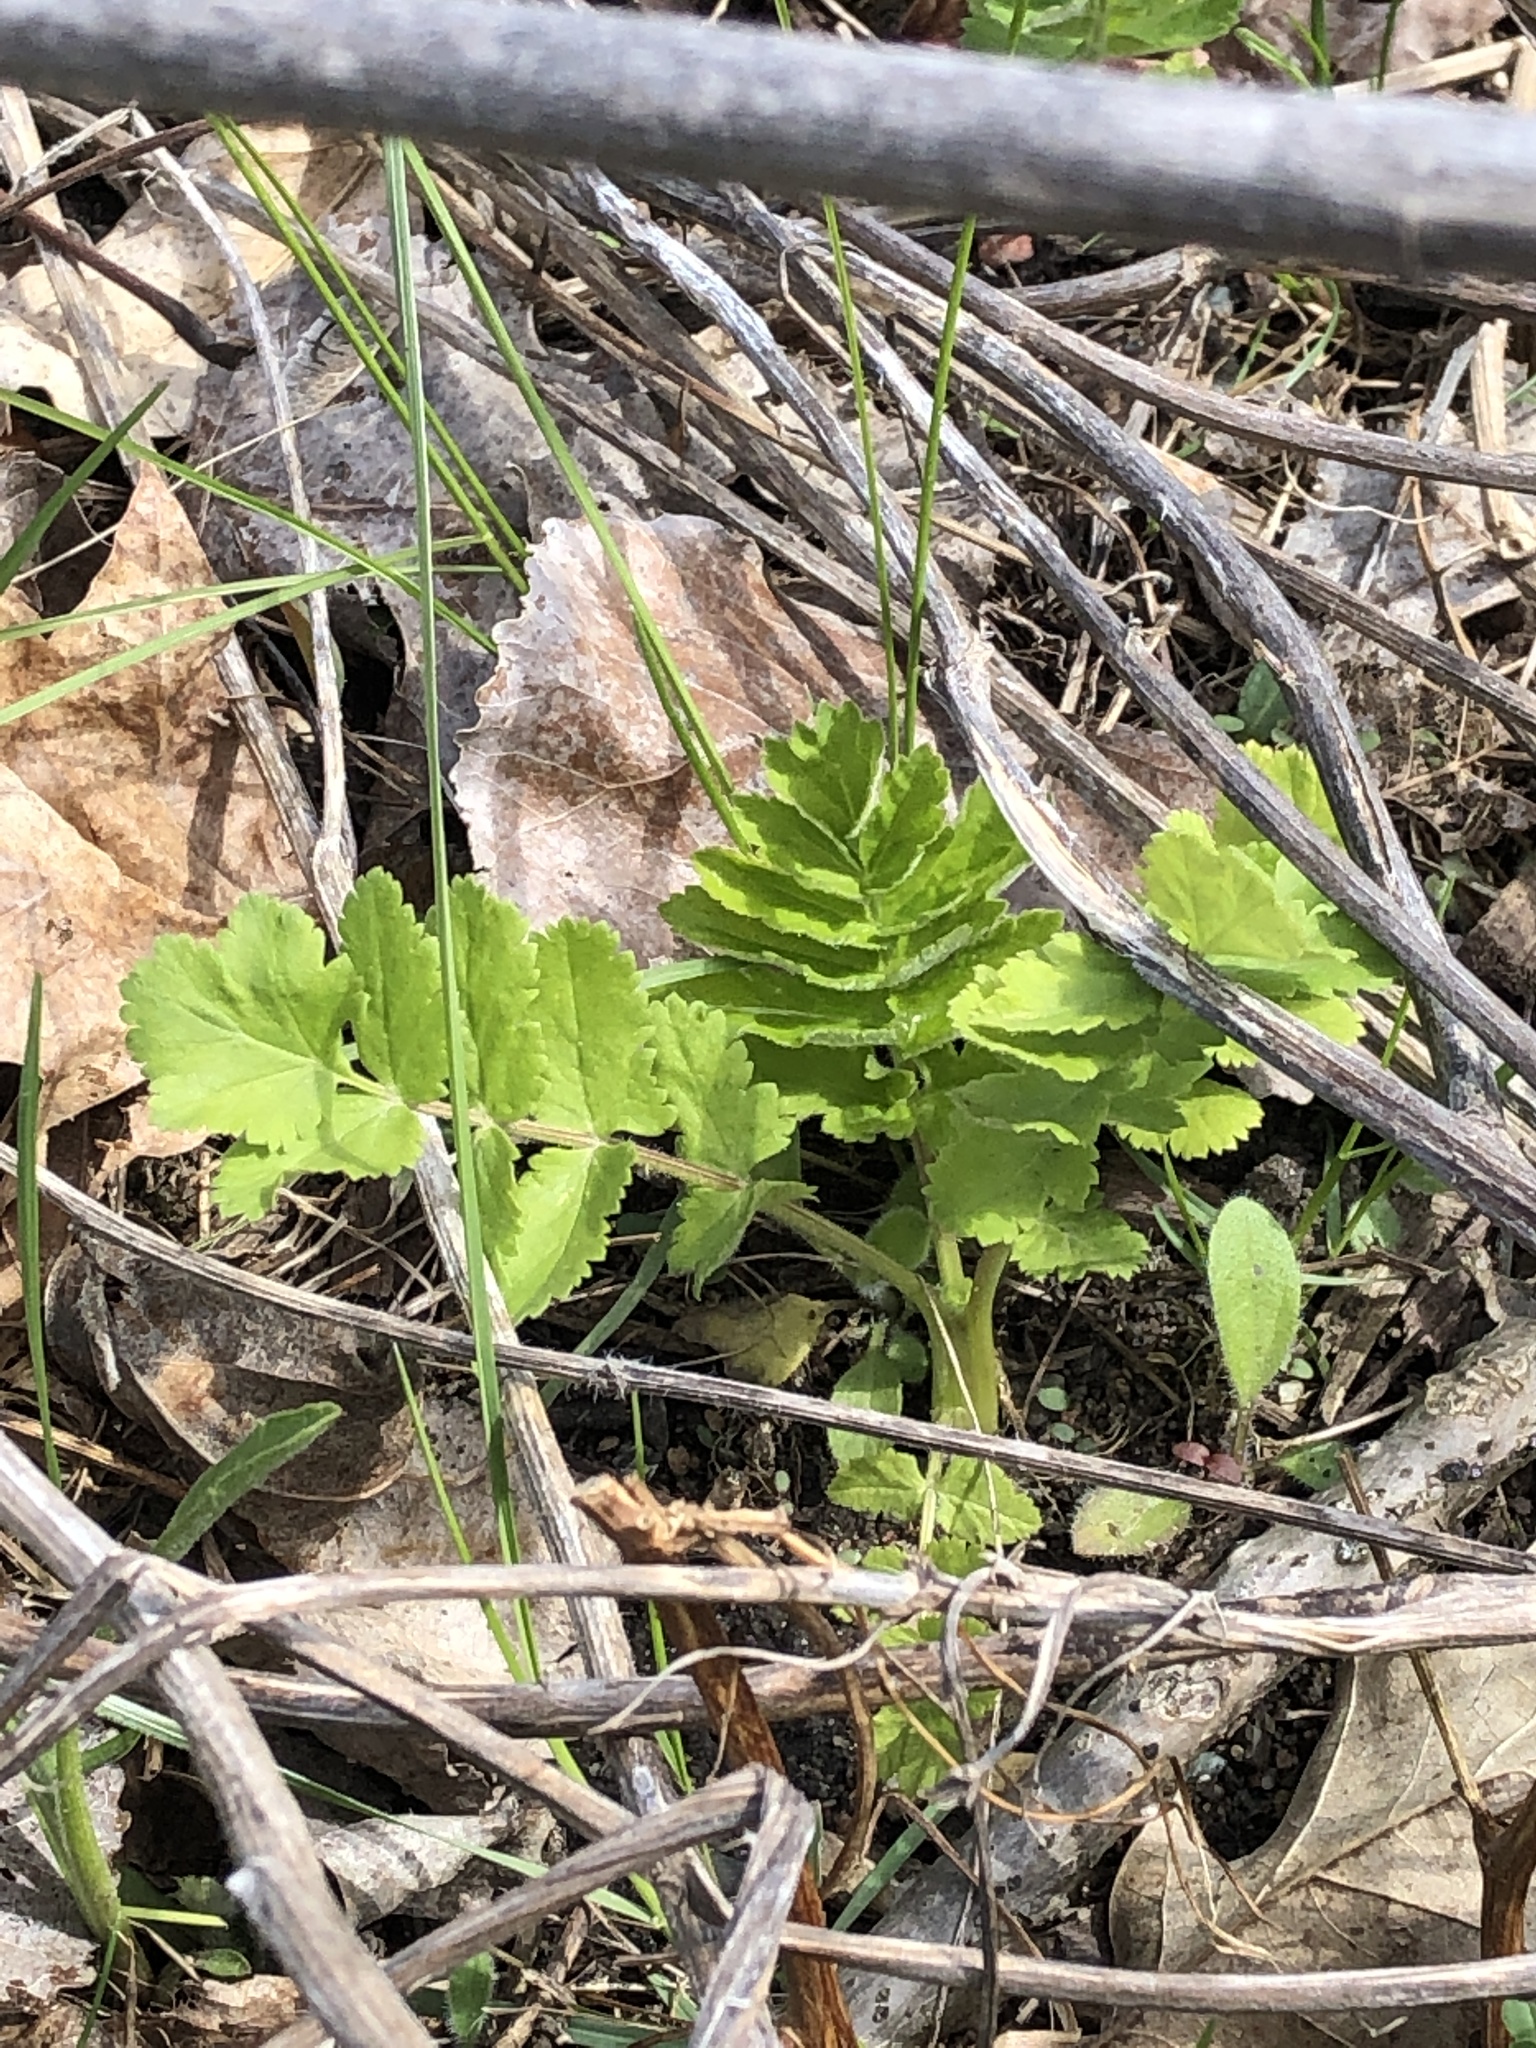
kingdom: Plantae
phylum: Tracheophyta
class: Magnoliopsida
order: Apiales
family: Apiaceae
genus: Pastinaca
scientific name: Pastinaca sativa
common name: Wild parsnip
